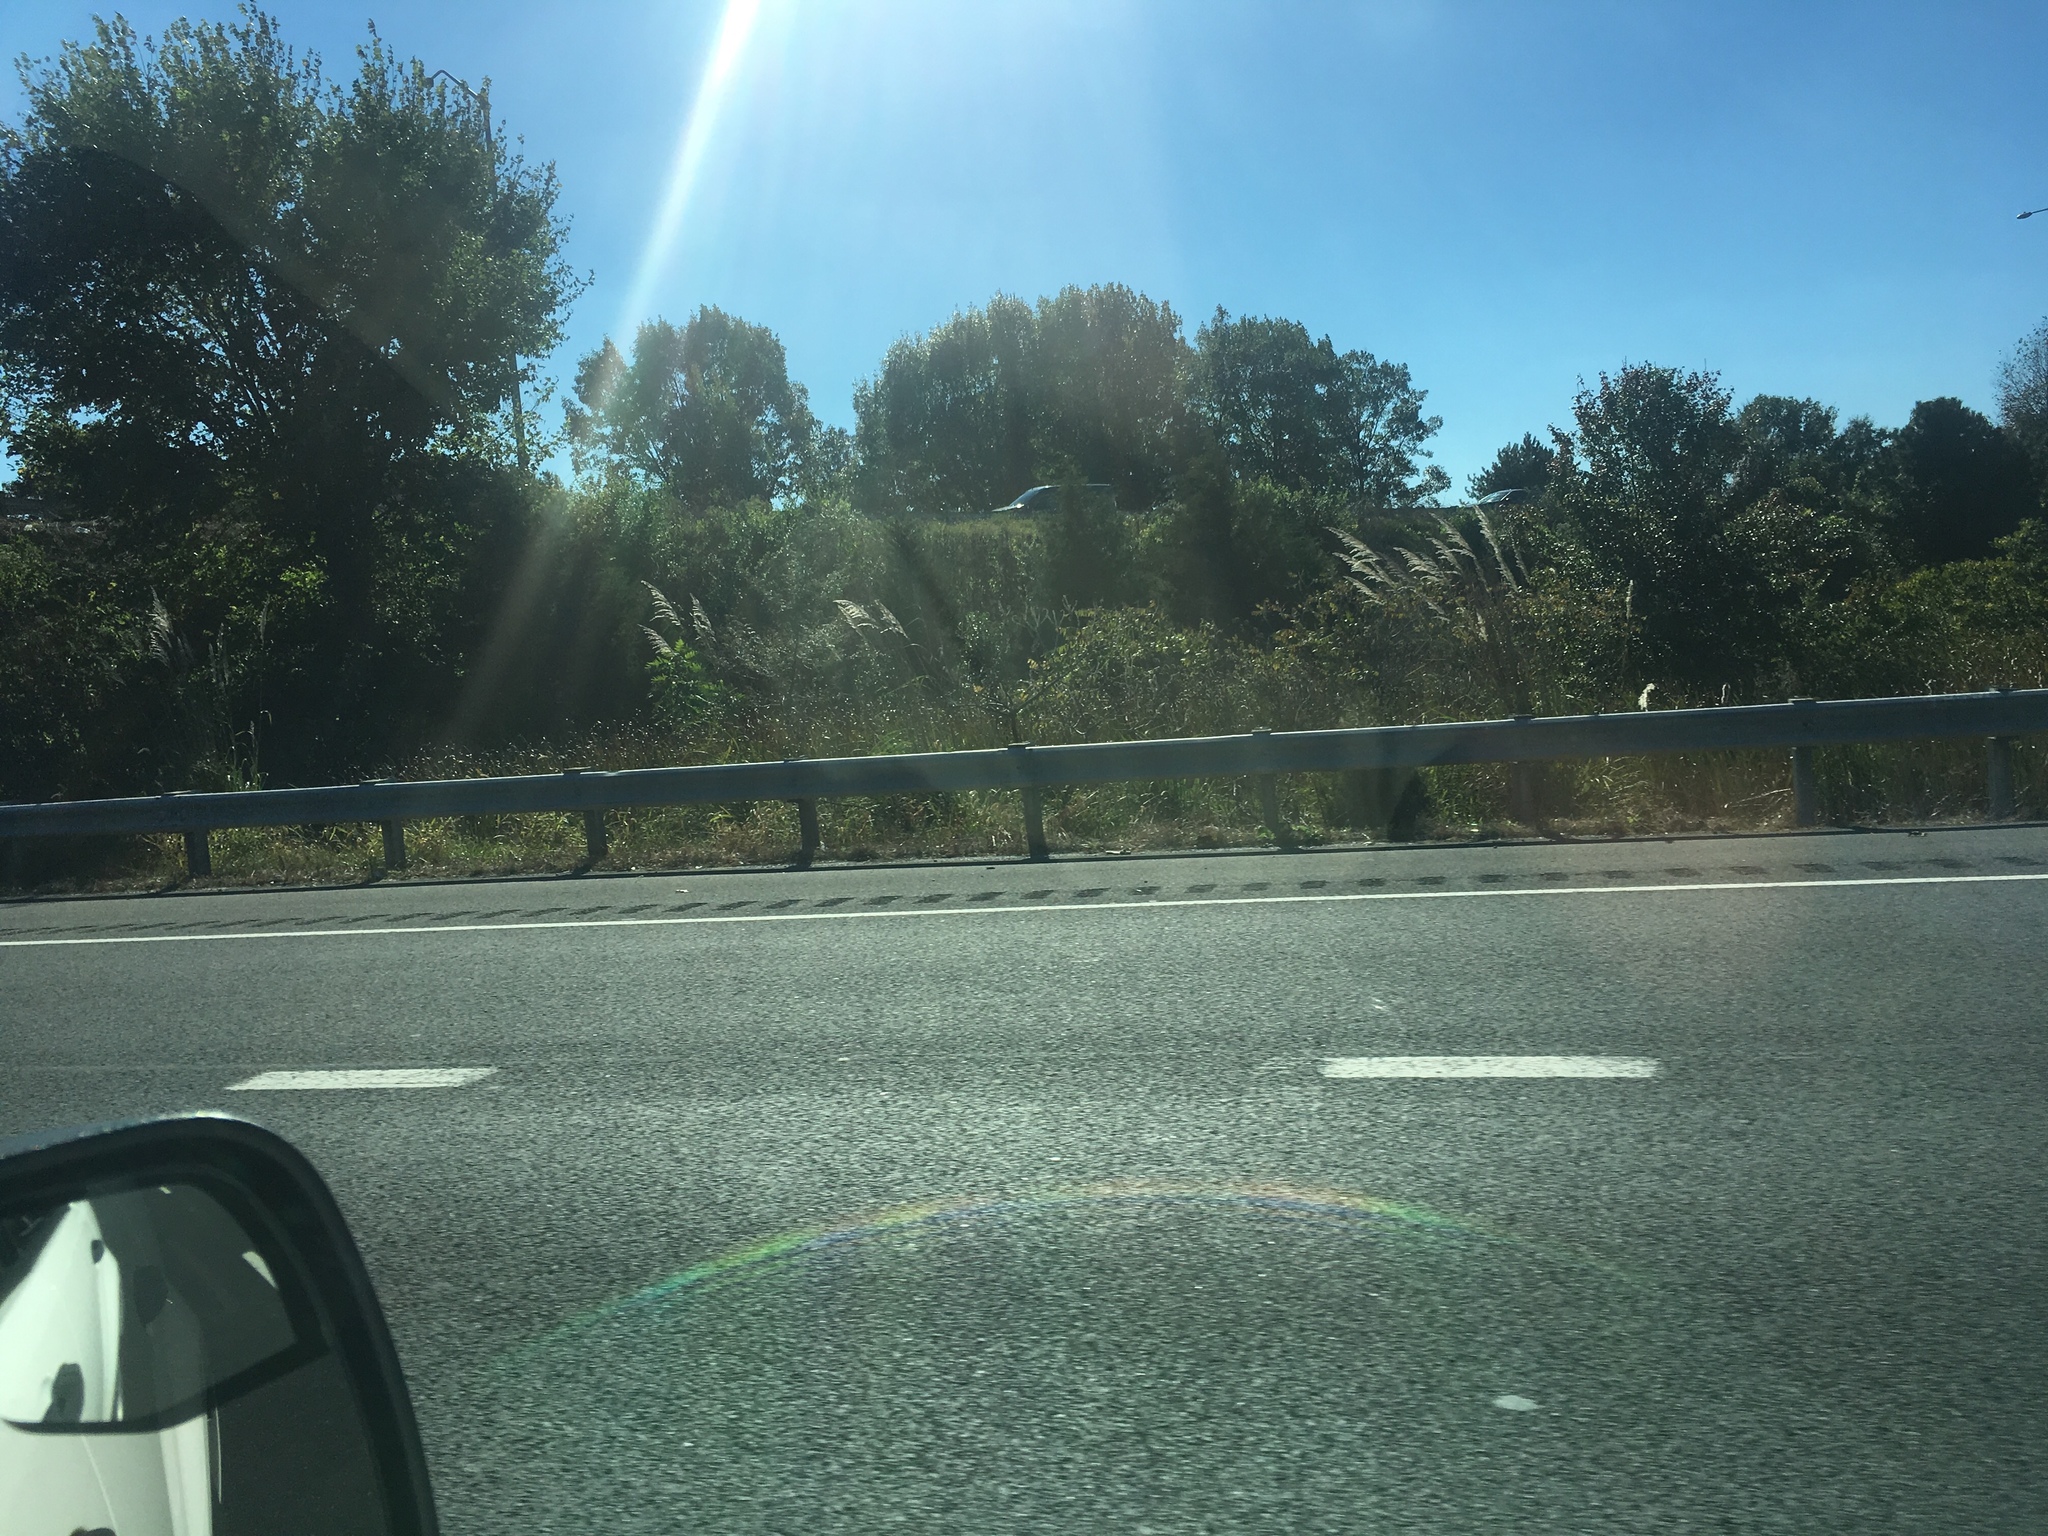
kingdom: Plantae
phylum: Tracheophyta
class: Liliopsida
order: Poales
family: Poaceae
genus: Tripidium
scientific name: Tripidium ravennae
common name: Ravenna grass
